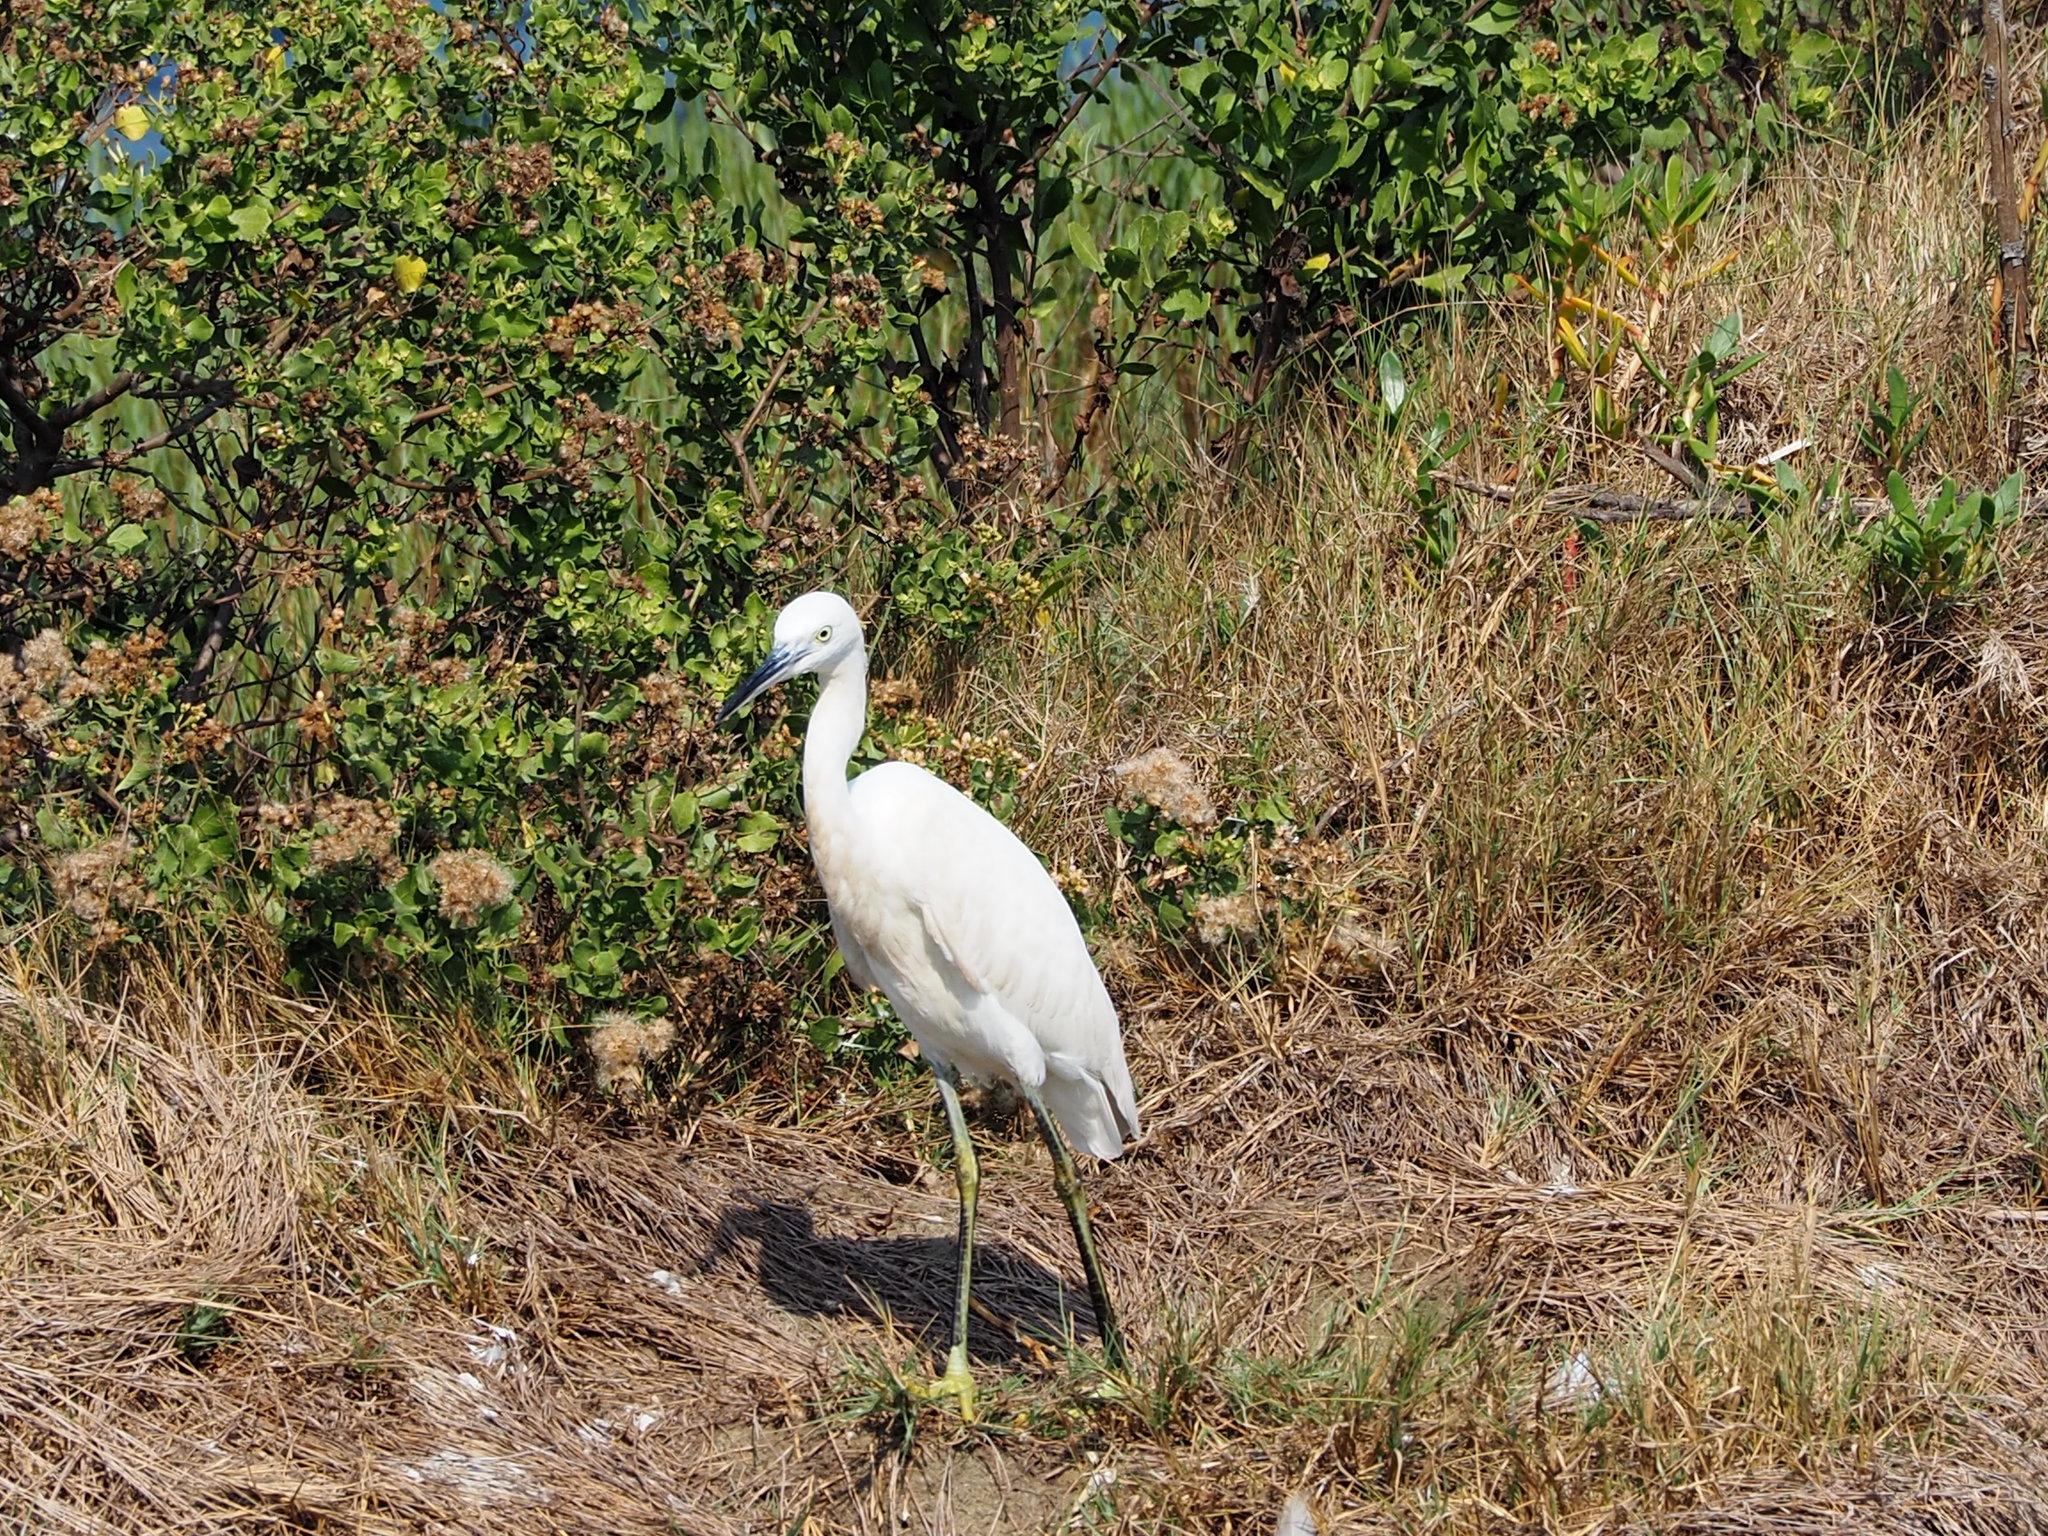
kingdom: Animalia
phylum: Chordata
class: Aves
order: Pelecaniformes
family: Ardeidae
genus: Egretta
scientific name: Egretta garzetta
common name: Little egret
